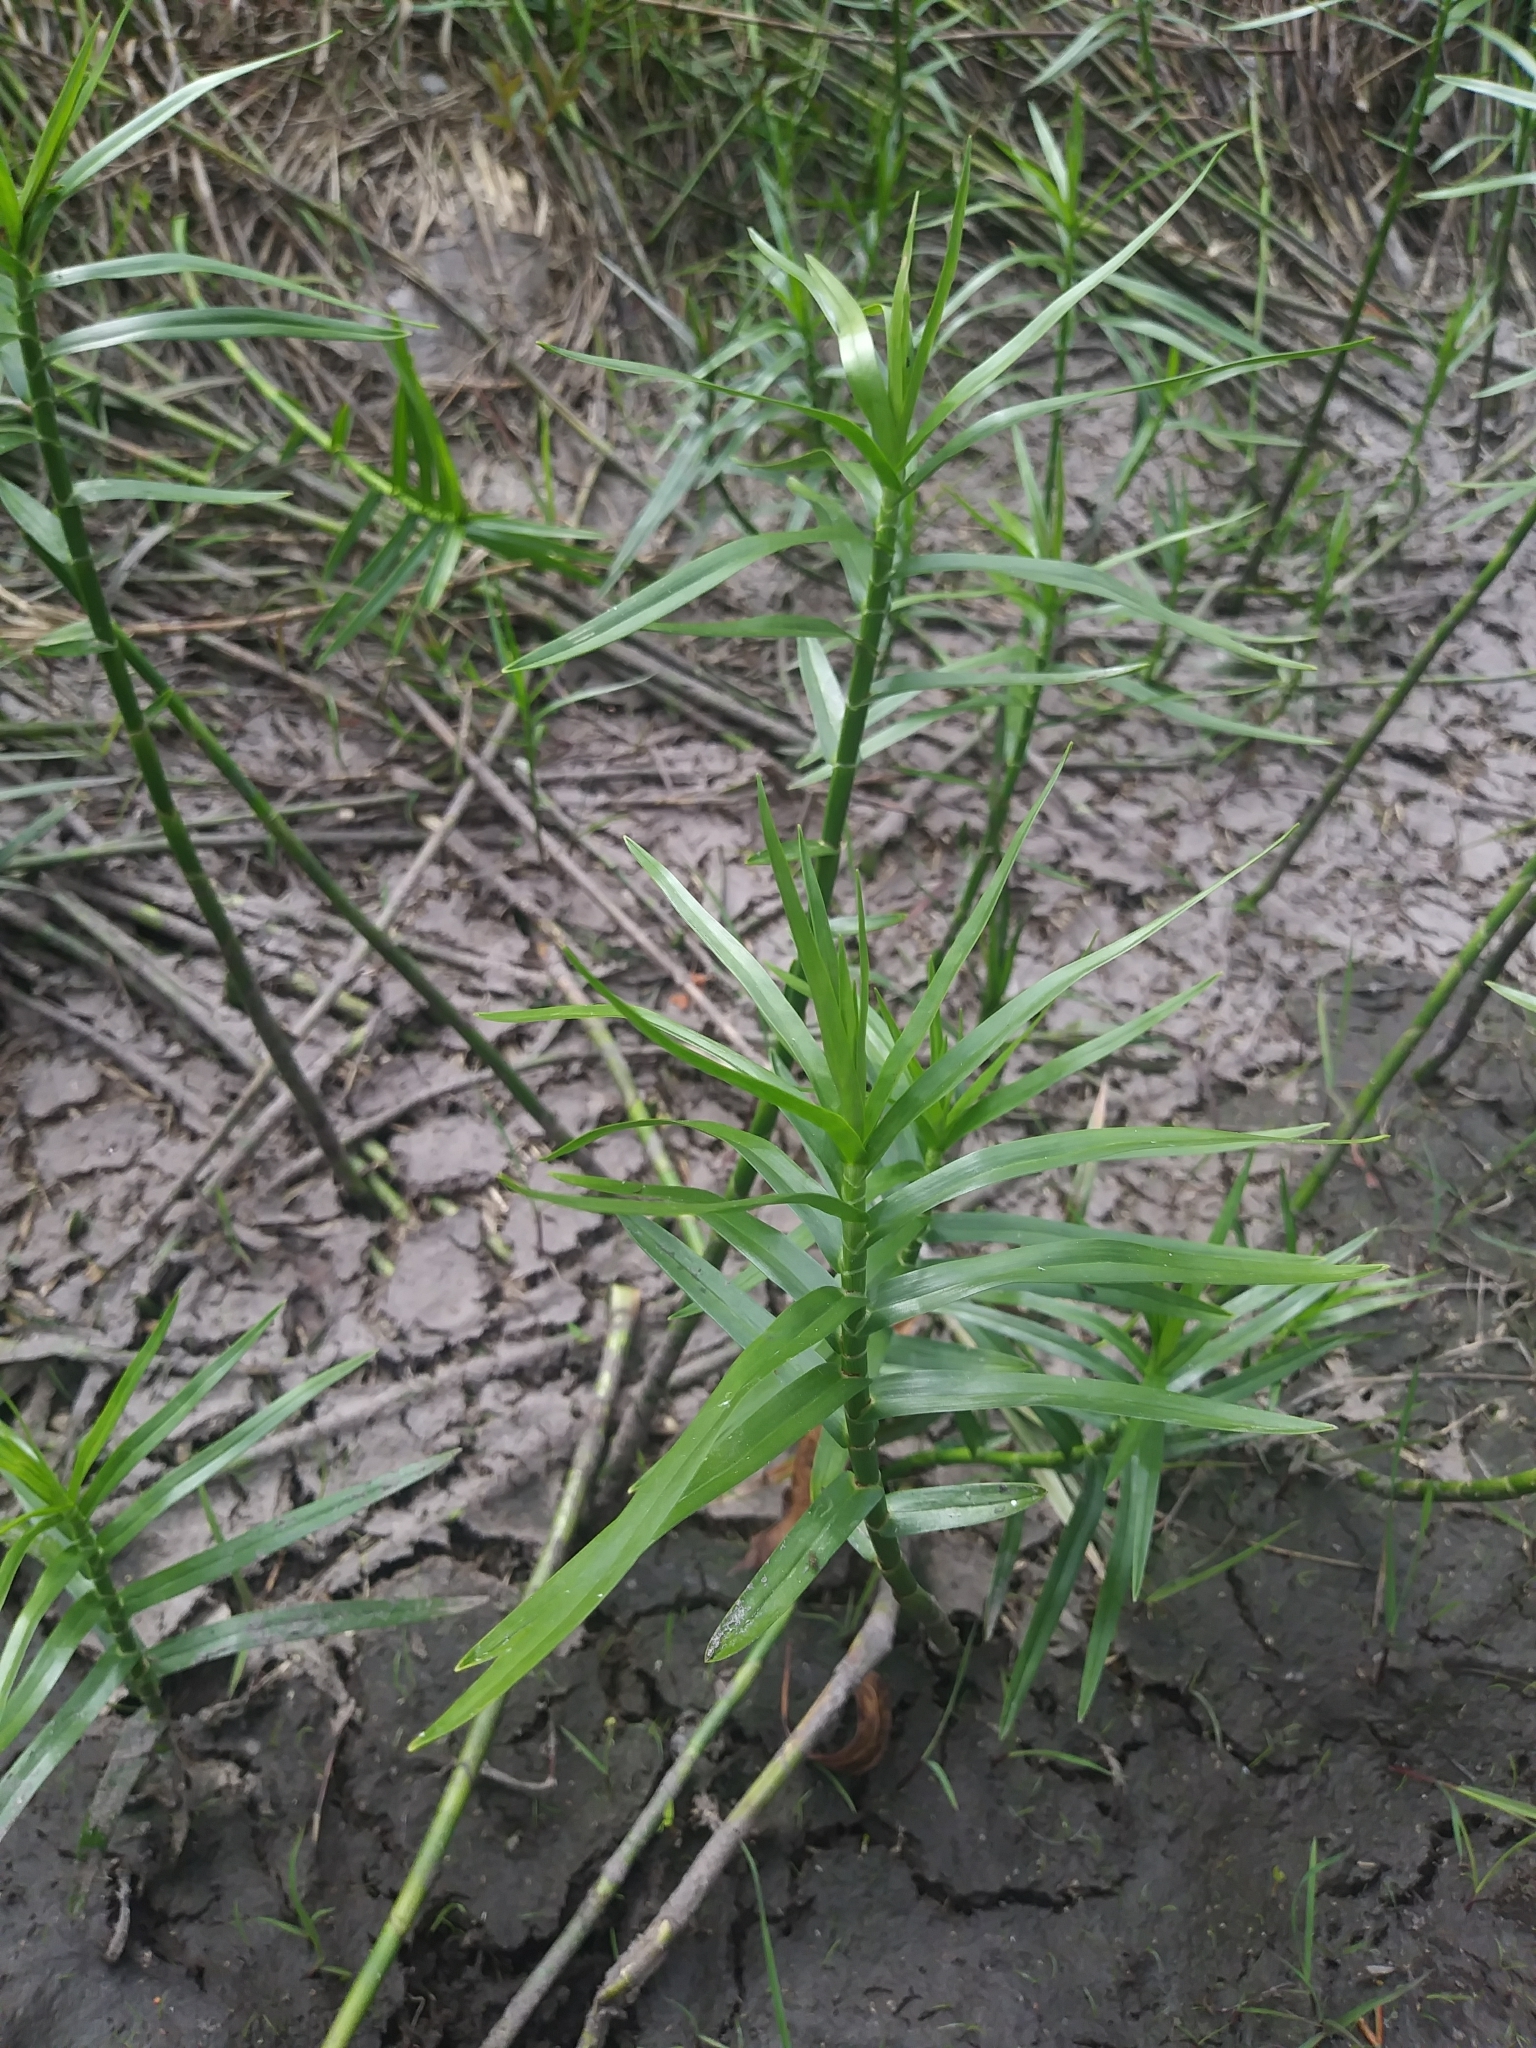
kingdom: Plantae
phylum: Tracheophyta
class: Liliopsida
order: Poales
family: Cyperaceae
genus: Dulichium
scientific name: Dulichium arundinaceum
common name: Three-way sedge
